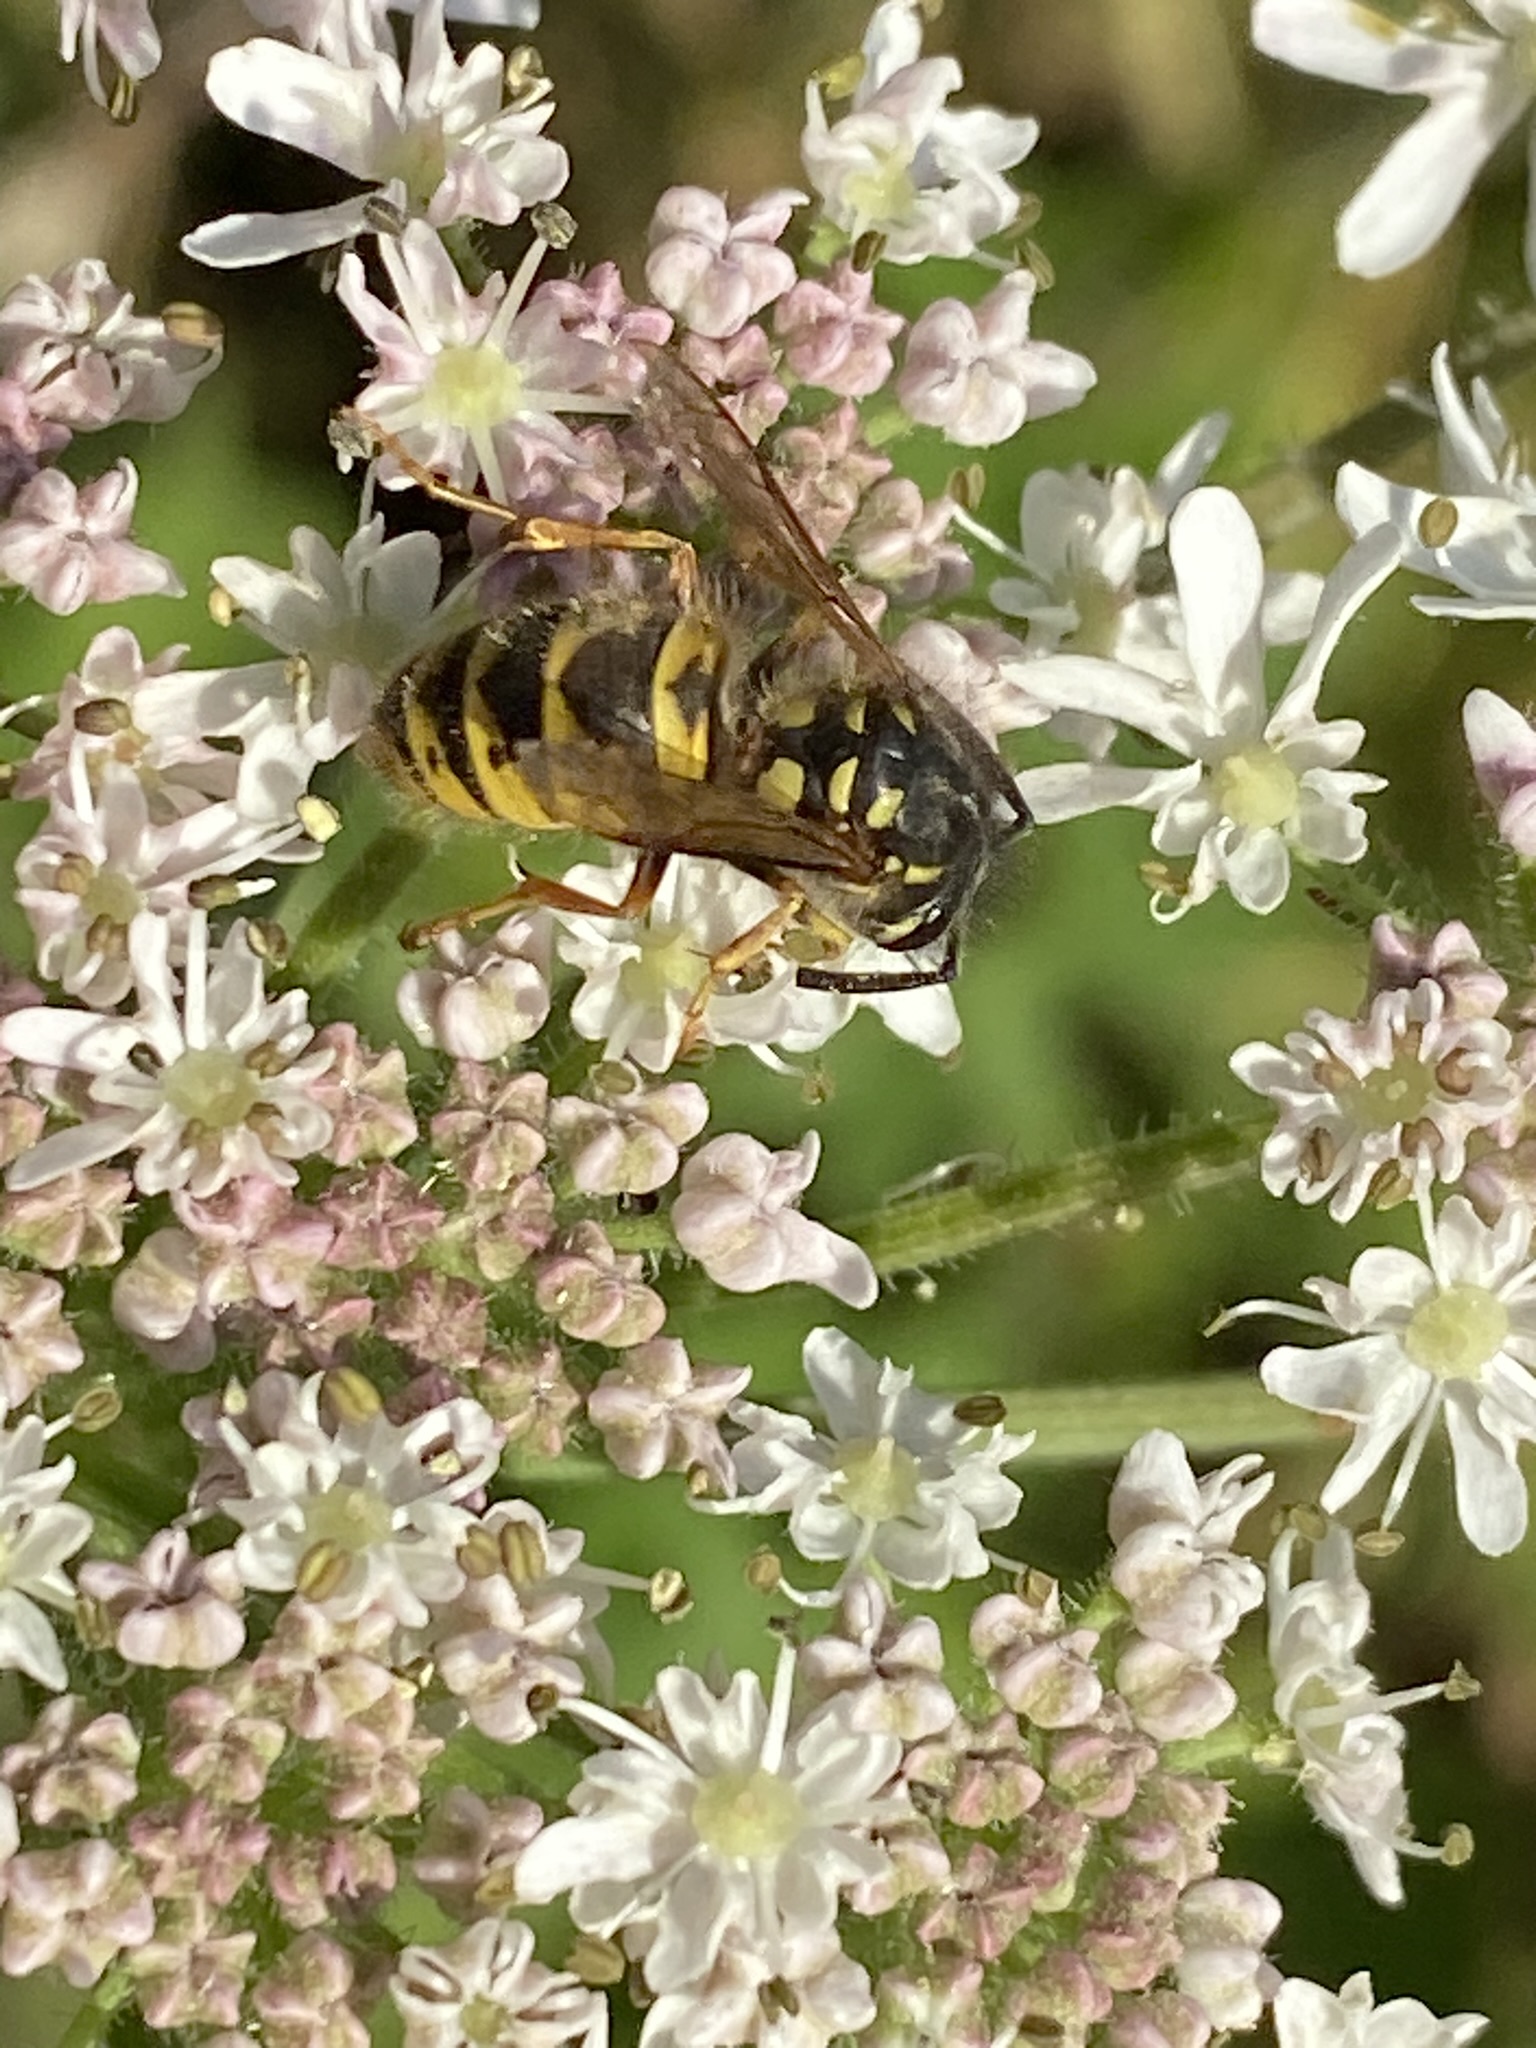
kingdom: Animalia
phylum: Arthropoda
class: Insecta
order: Hymenoptera
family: Vespidae
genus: Vespula
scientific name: Vespula vulgaris
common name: Common wasp
